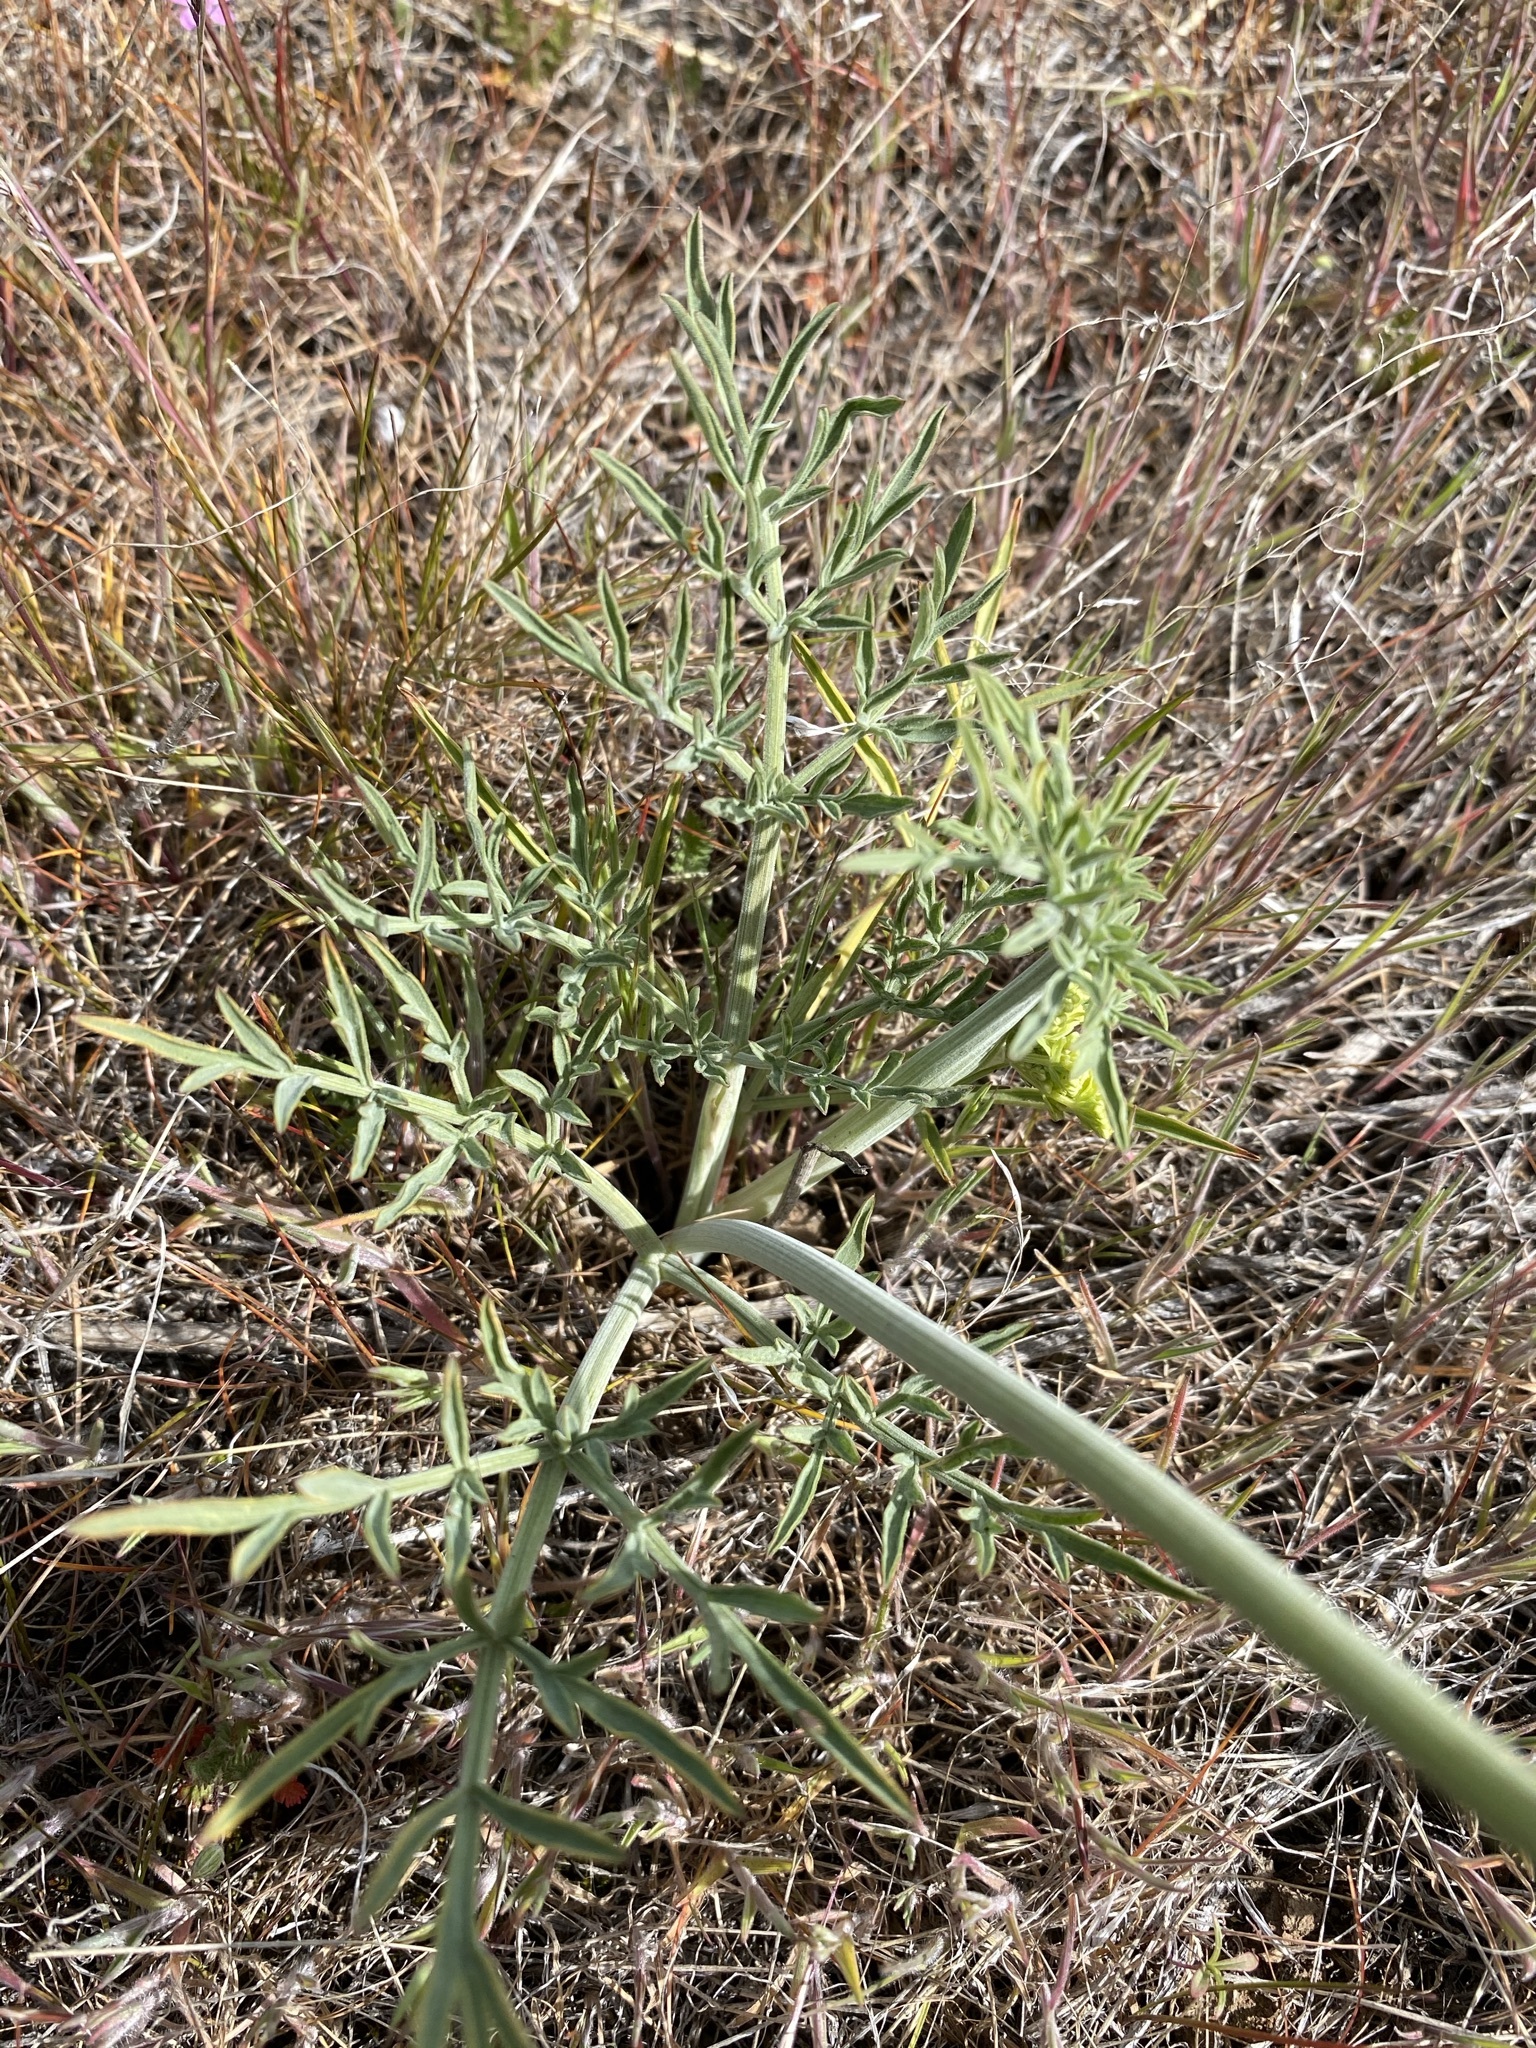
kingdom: Plantae
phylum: Tracheophyta
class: Magnoliopsida
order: Apiales
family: Apiaceae
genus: Lomatium
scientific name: Lomatium triternatum
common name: Ternate lomatium
